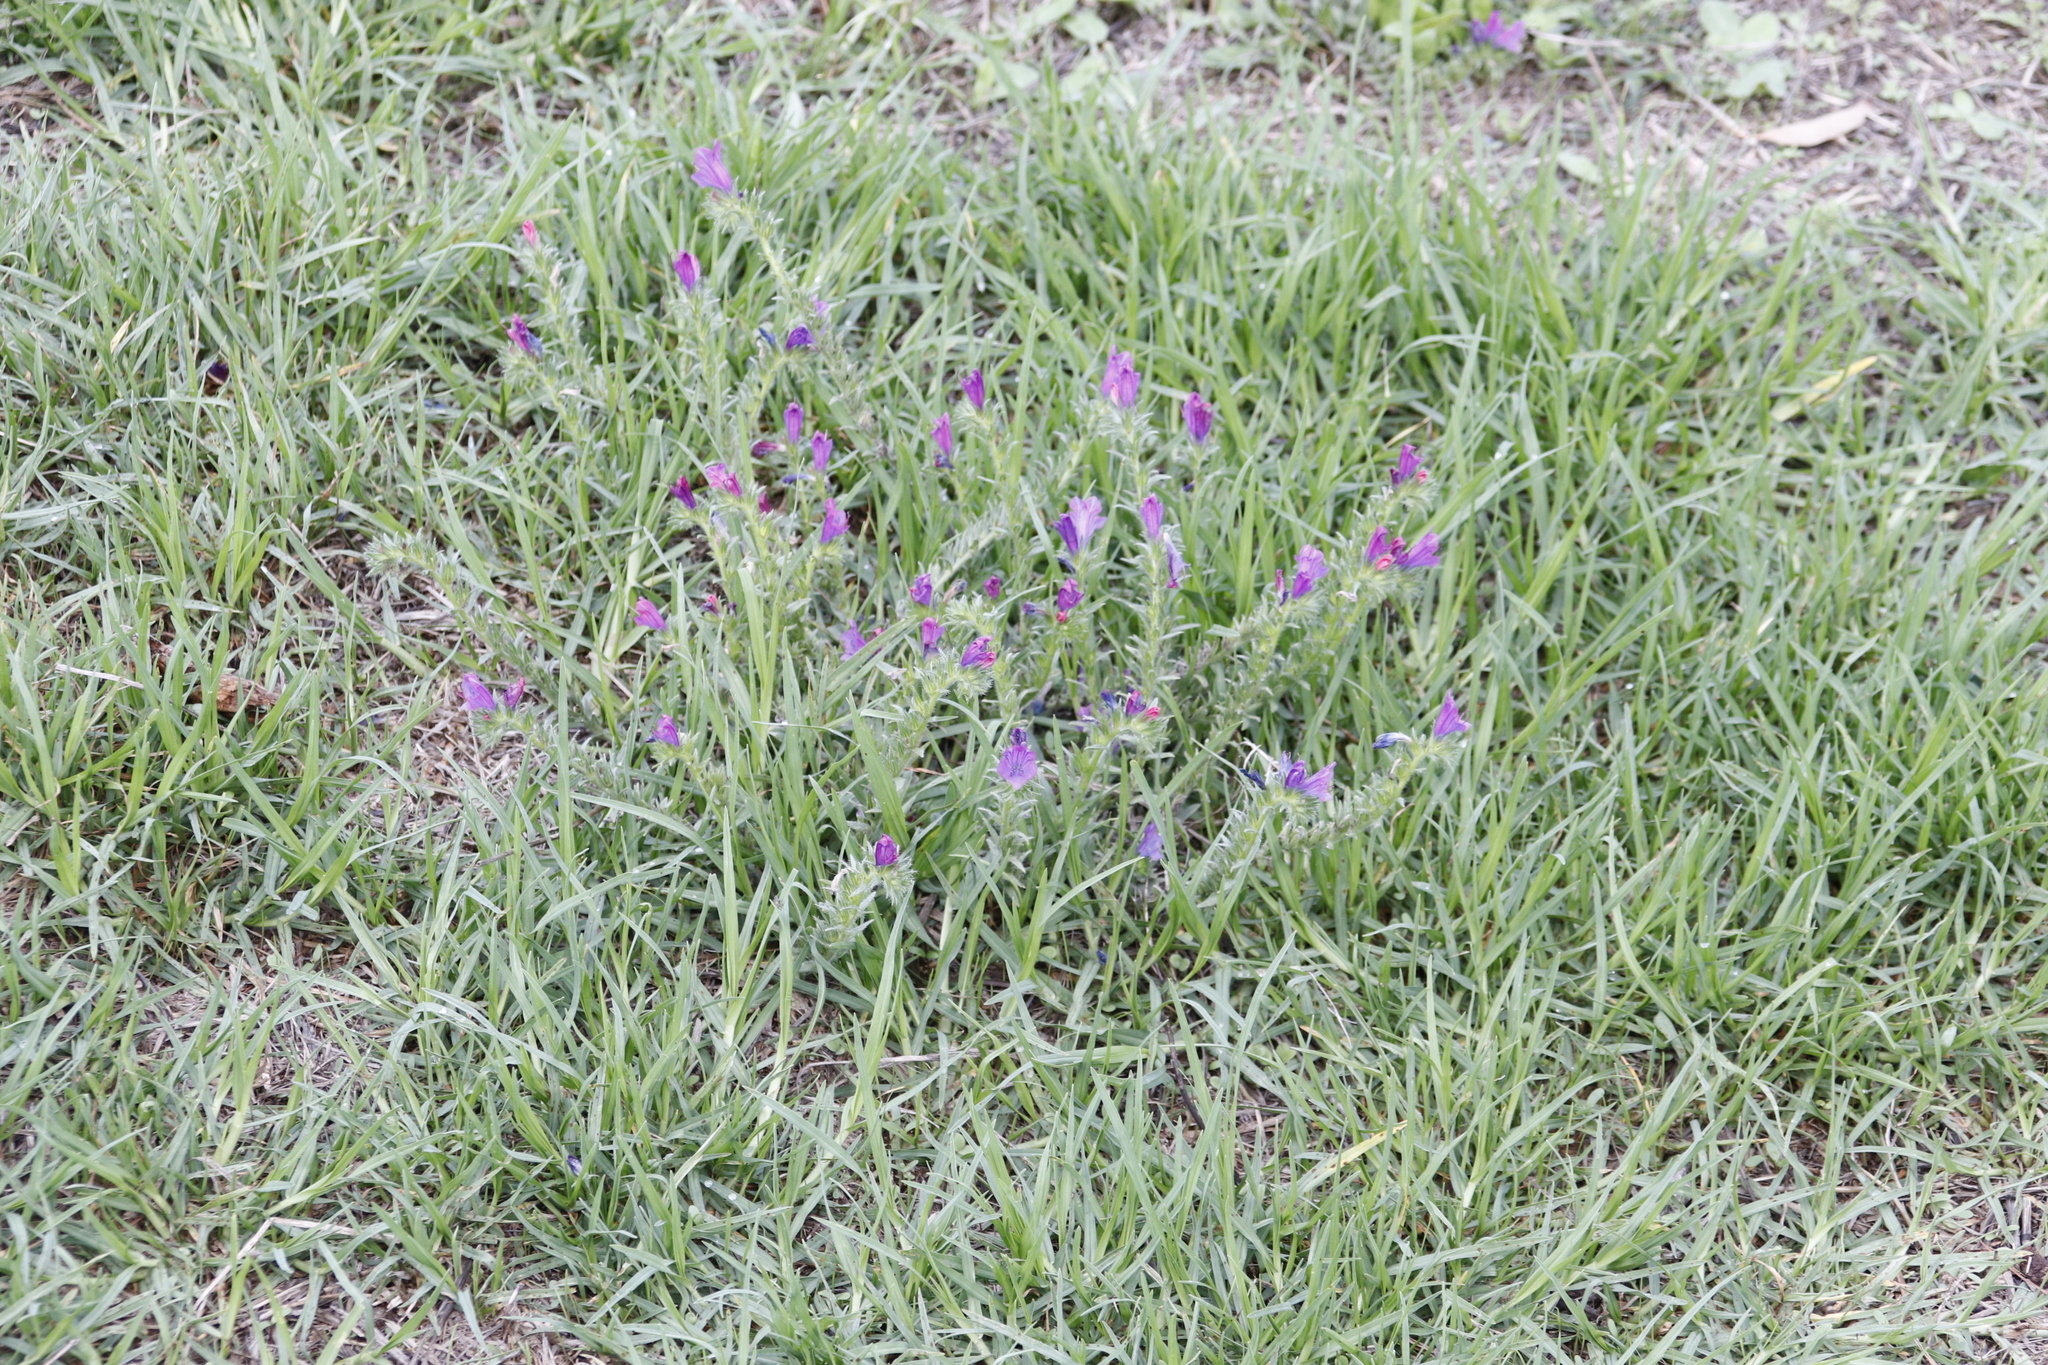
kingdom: Plantae
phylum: Tracheophyta
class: Magnoliopsida
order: Boraginales
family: Boraginaceae
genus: Echium
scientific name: Echium plantagineum
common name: Purple viper's-bugloss
